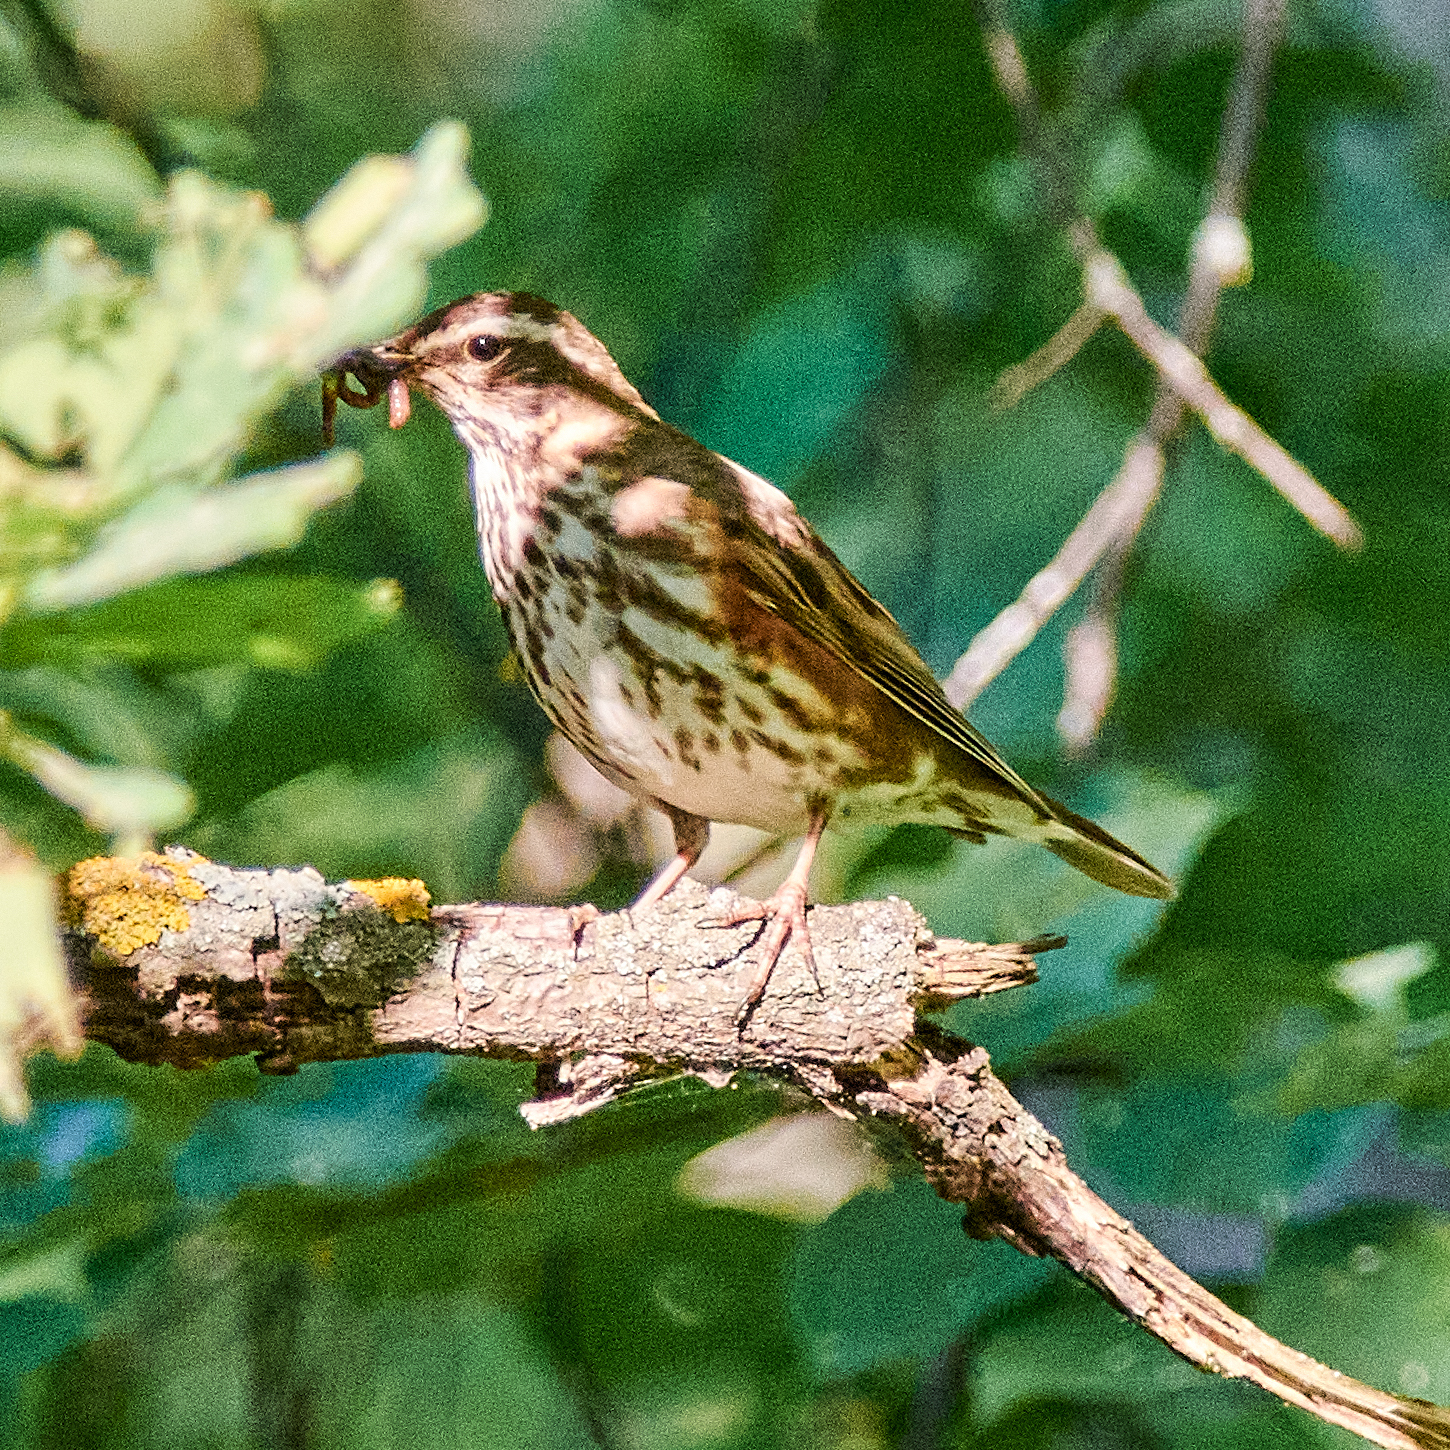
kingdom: Animalia
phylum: Chordata
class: Aves
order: Passeriformes
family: Turdidae
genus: Turdus
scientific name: Turdus iliacus
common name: Redwing
